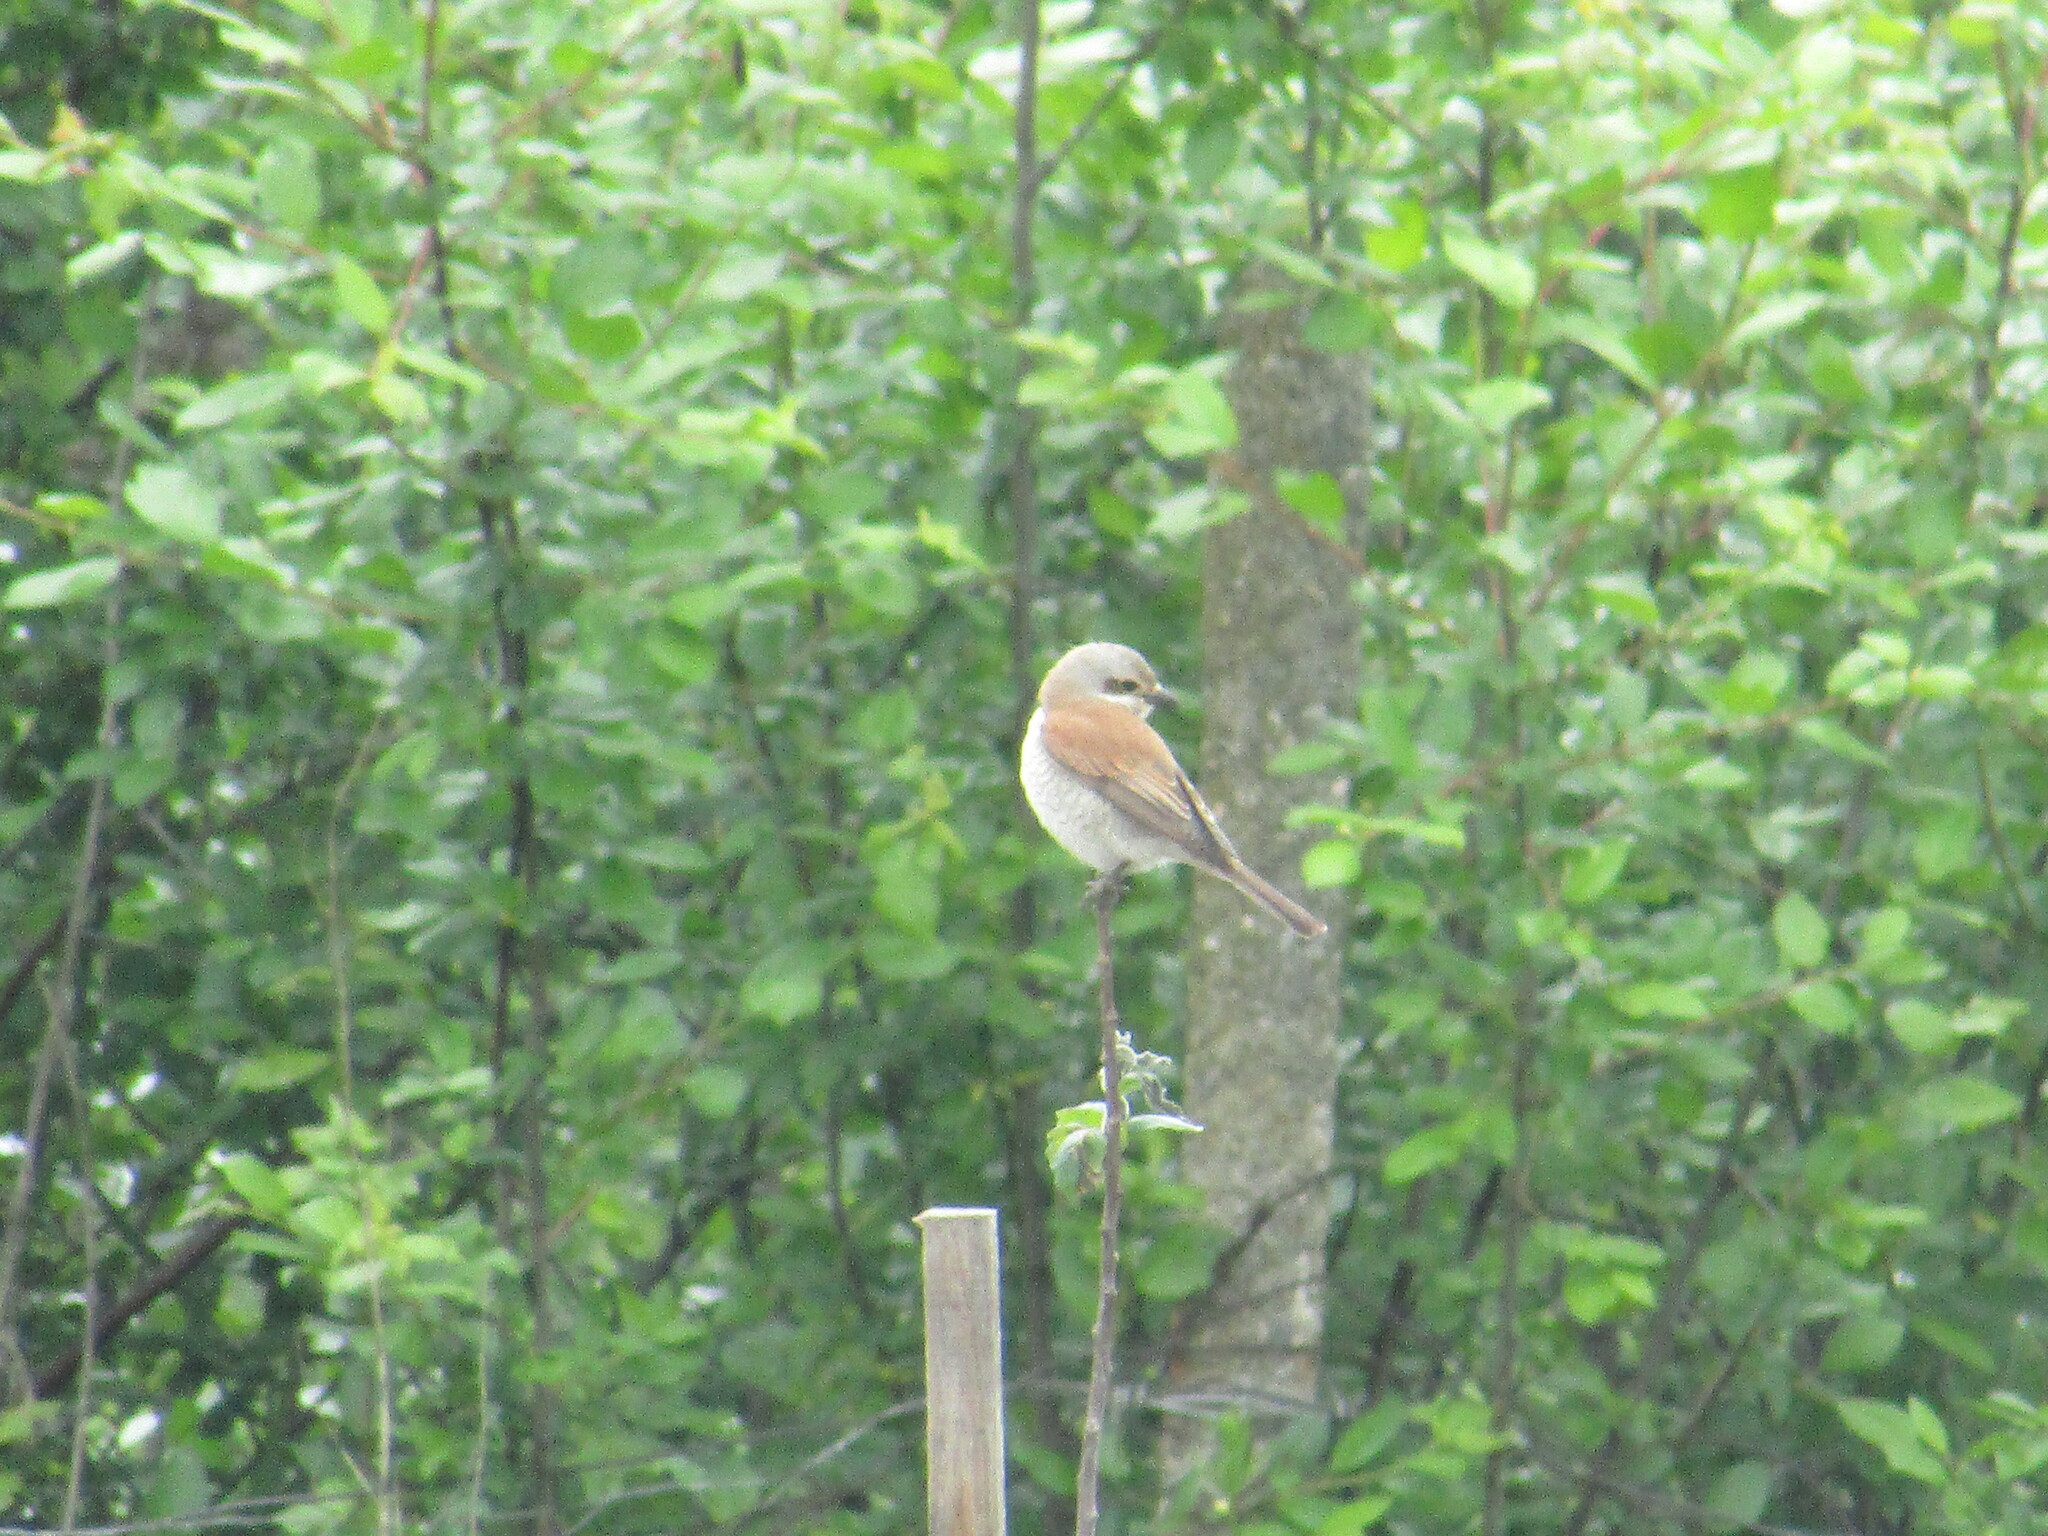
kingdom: Animalia
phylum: Chordata
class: Aves
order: Passeriformes
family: Laniidae
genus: Lanius
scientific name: Lanius collurio
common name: Red-backed shrike
